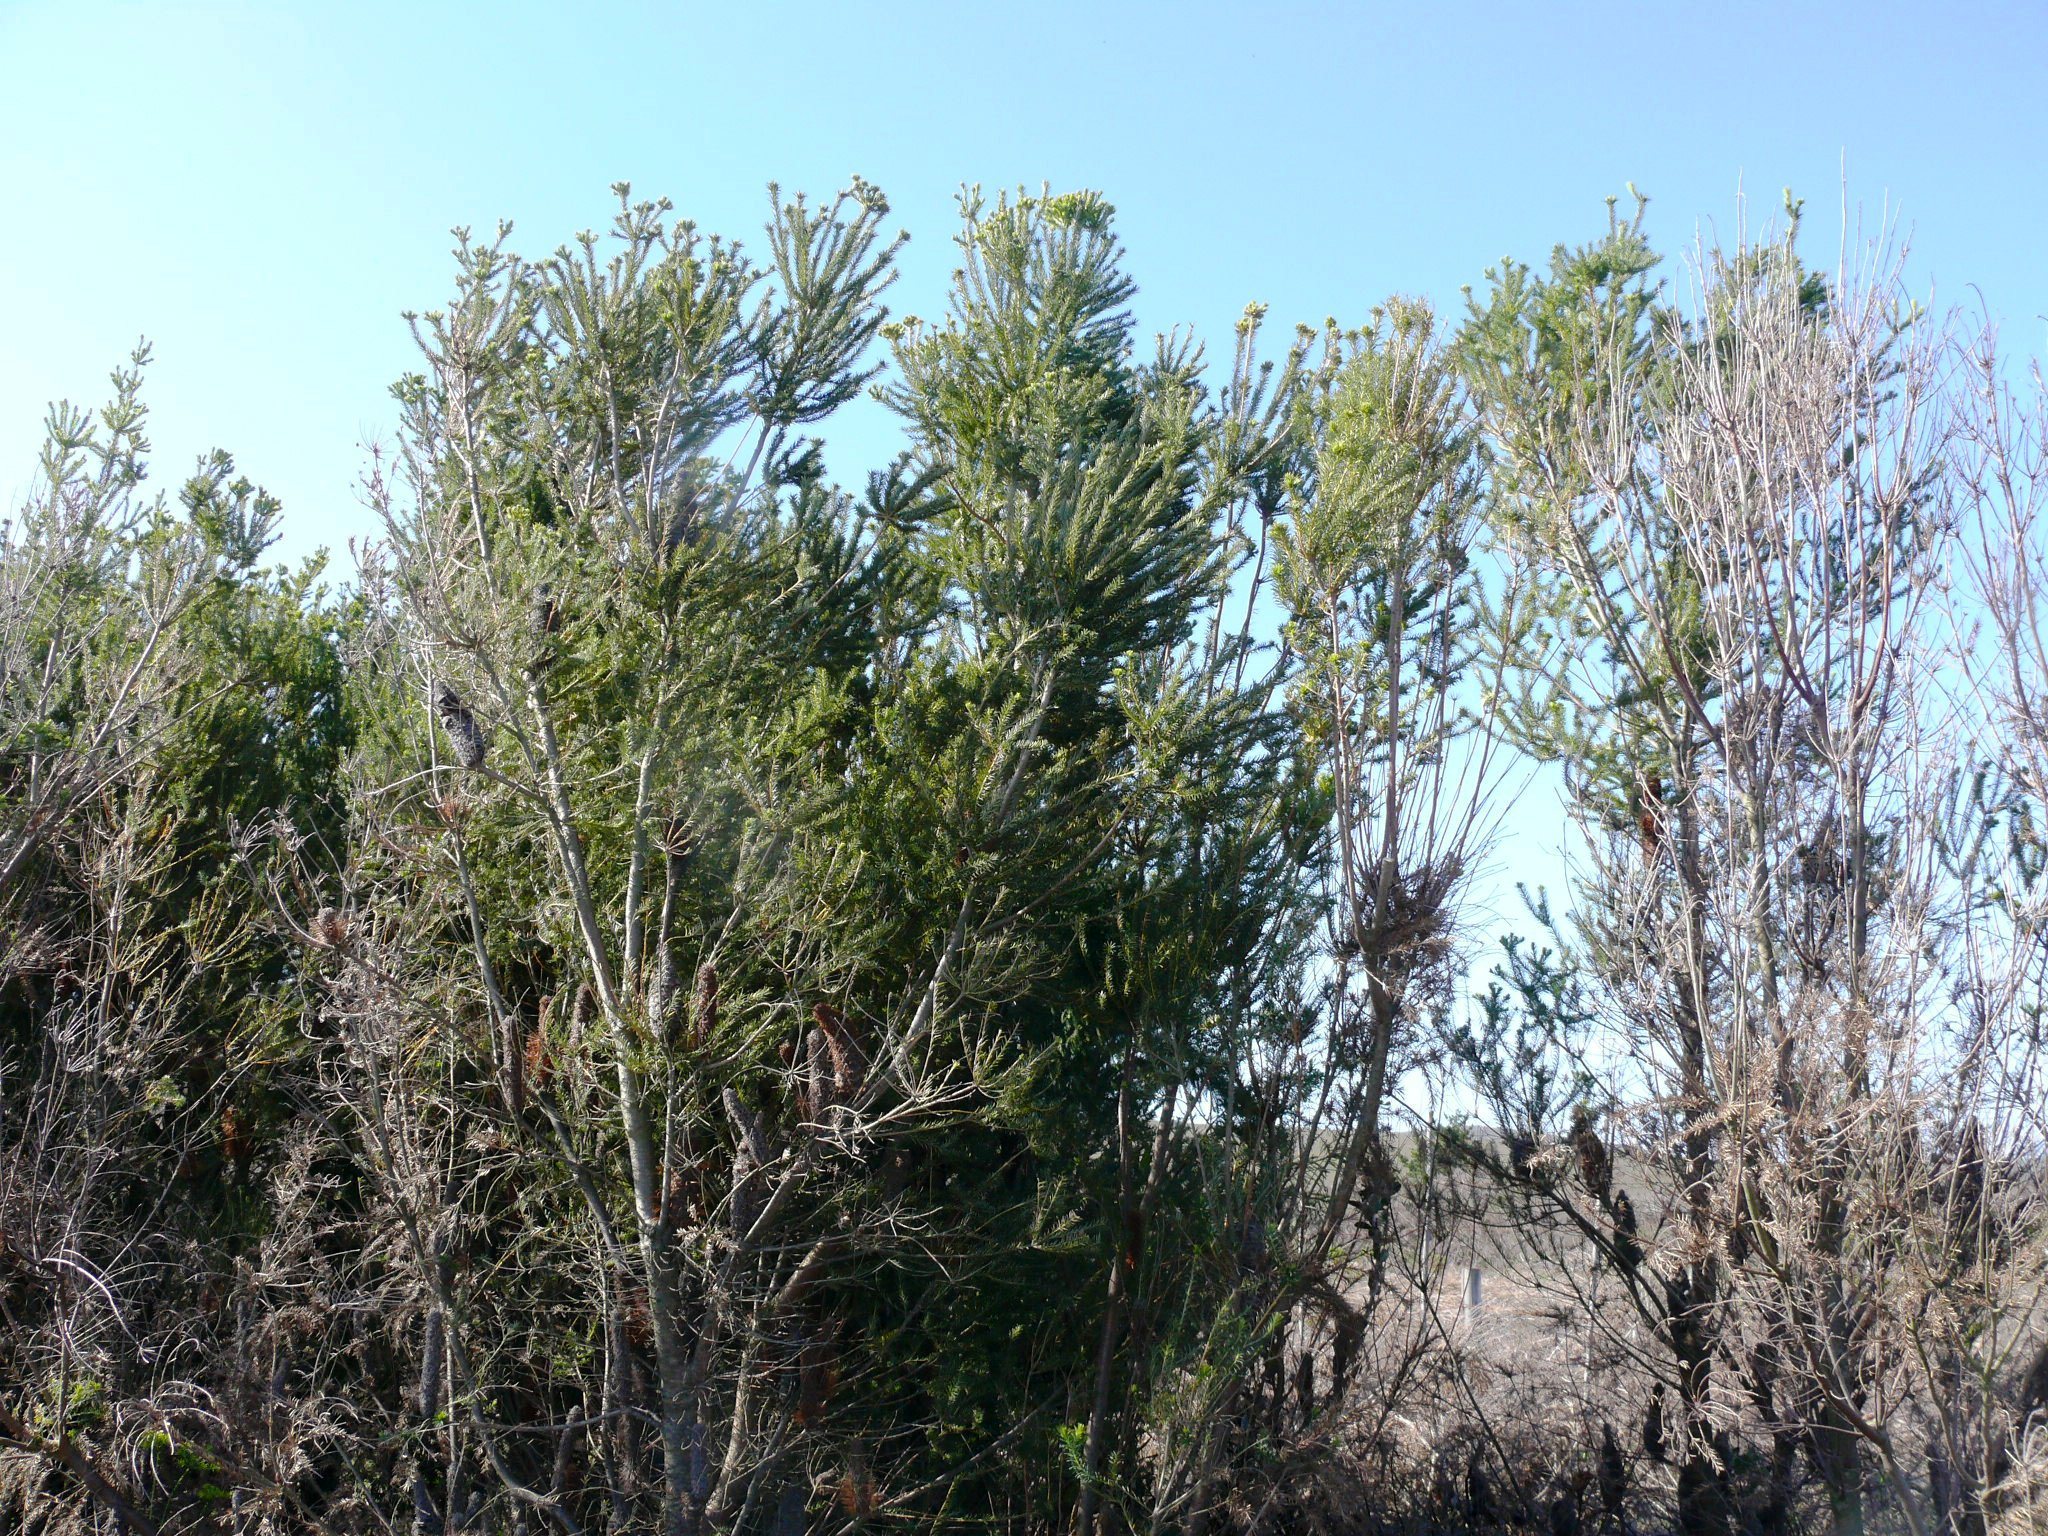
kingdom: Plantae
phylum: Tracheophyta
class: Magnoliopsida
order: Proteales
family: Proteaceae
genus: Banksia
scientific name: Banksia ericifolia
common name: Heath-leaf banksia
